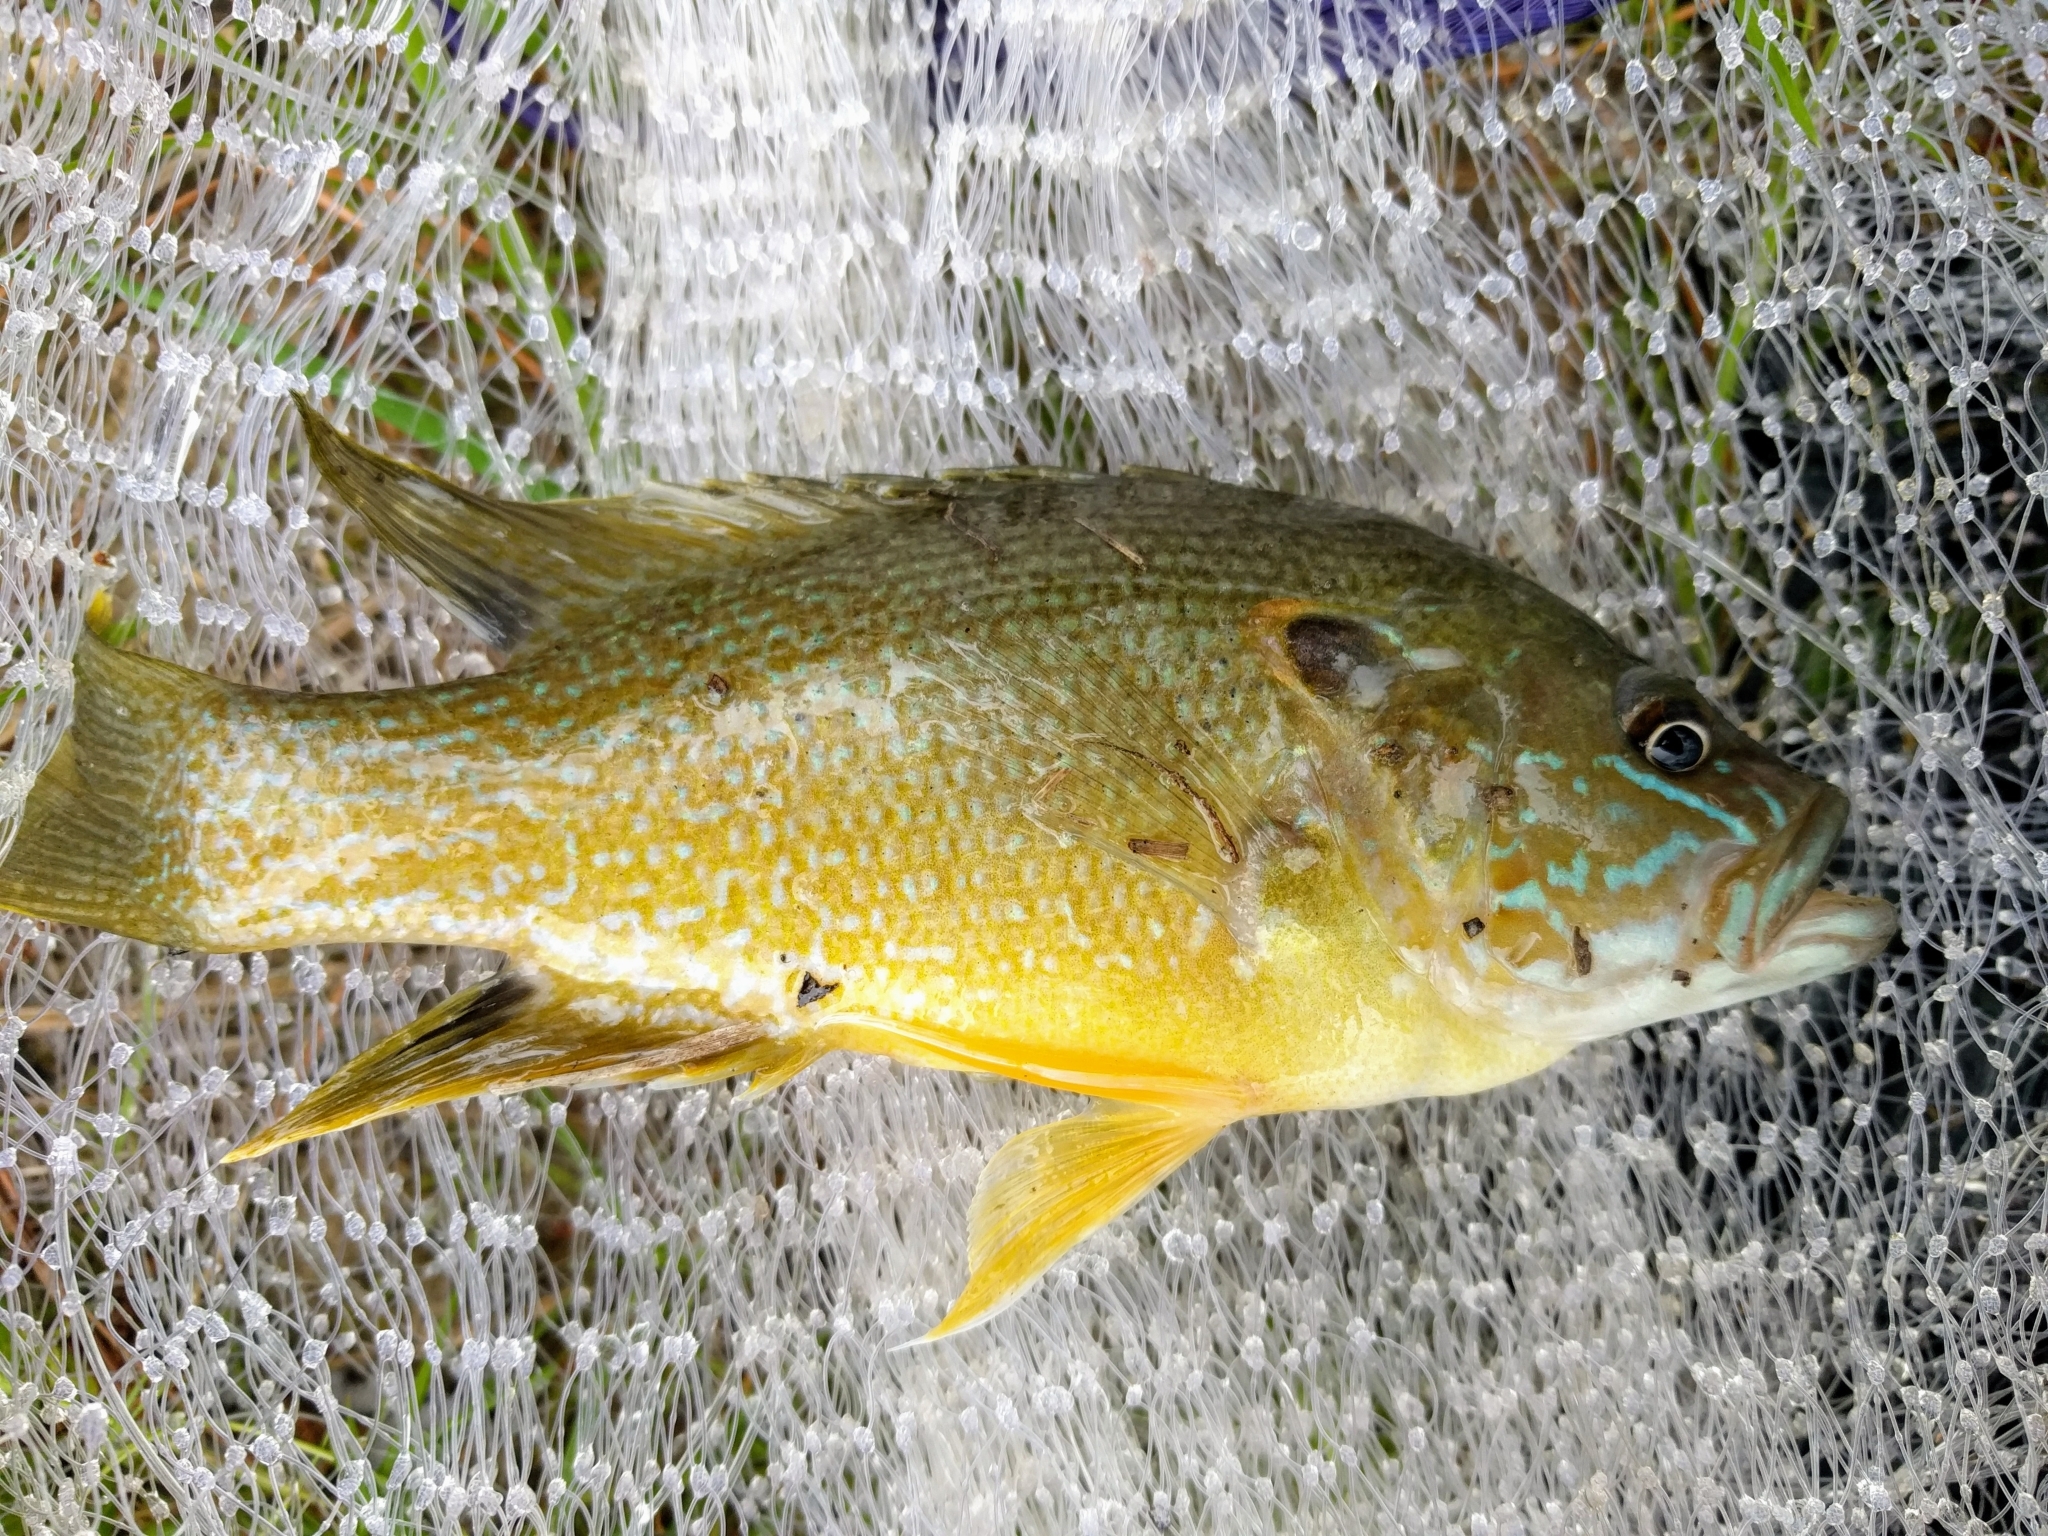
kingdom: Animalia
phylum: Chordata
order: Perciformes
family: Centrarchidae
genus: Lepomis
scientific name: Lepomis cyanellus
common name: Green sunfish
